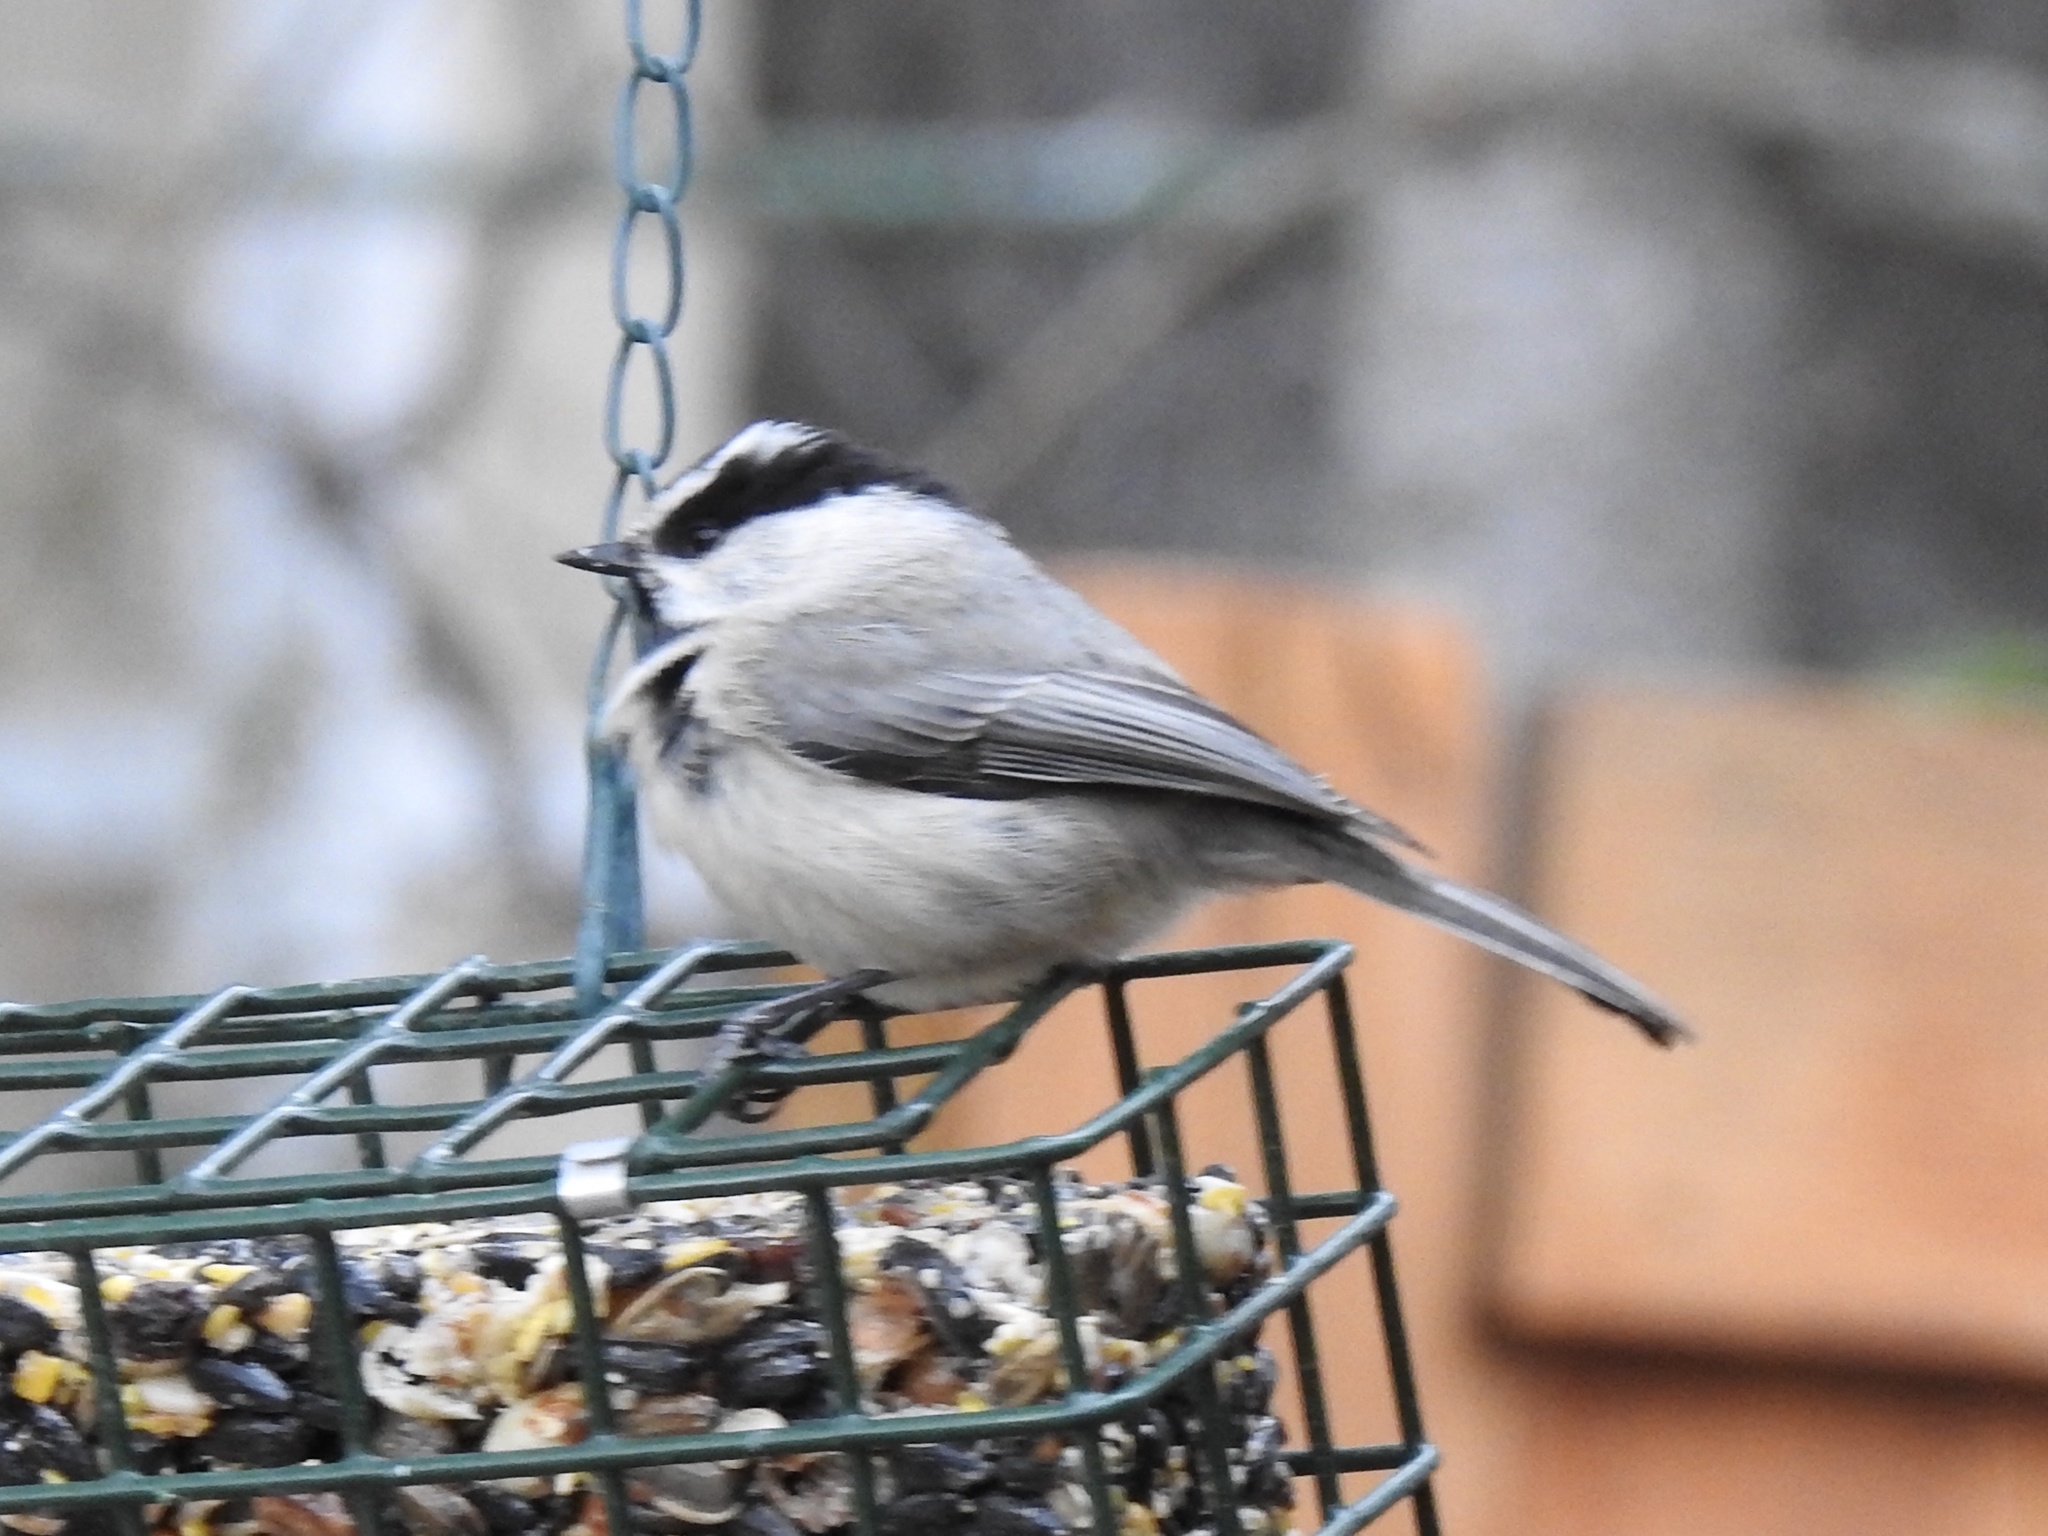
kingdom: Animalia
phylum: Chordata
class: Aves
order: Passeriformes
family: Paridae
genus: Poecile
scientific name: Poecile gambeli
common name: Mountain chickadee
